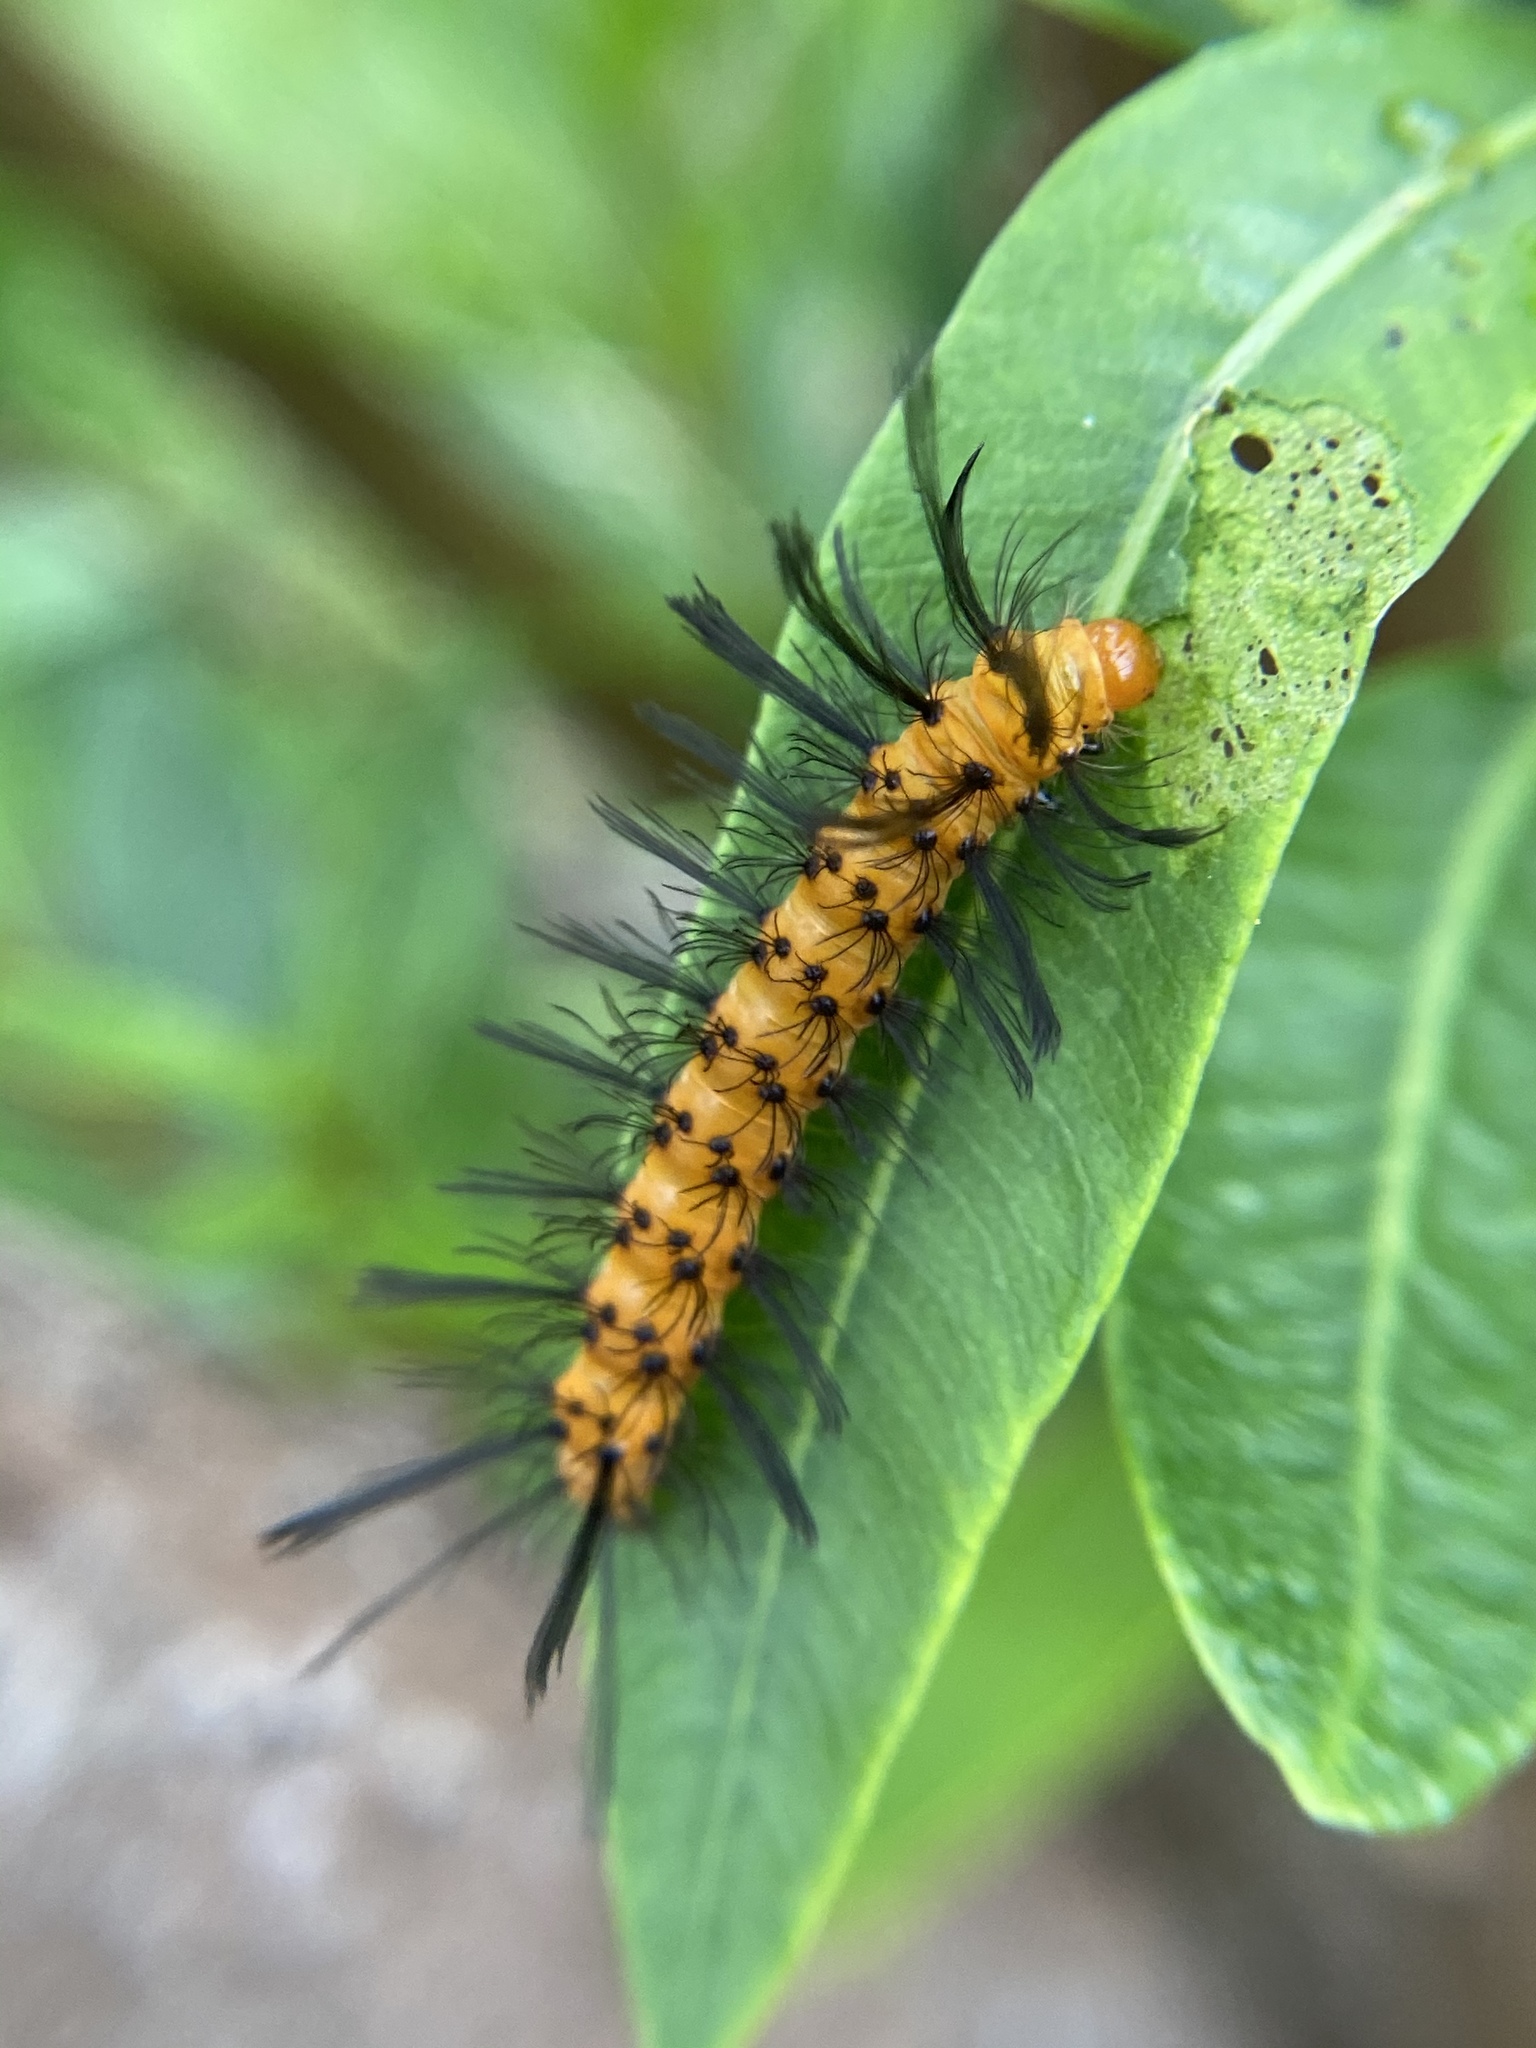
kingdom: Animalia
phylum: Arthropoda
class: Insecta
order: Lepidoptera
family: Erebidae
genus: Syntomeida
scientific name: Syntomeida epilais
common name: Polka-dot wasp moth
